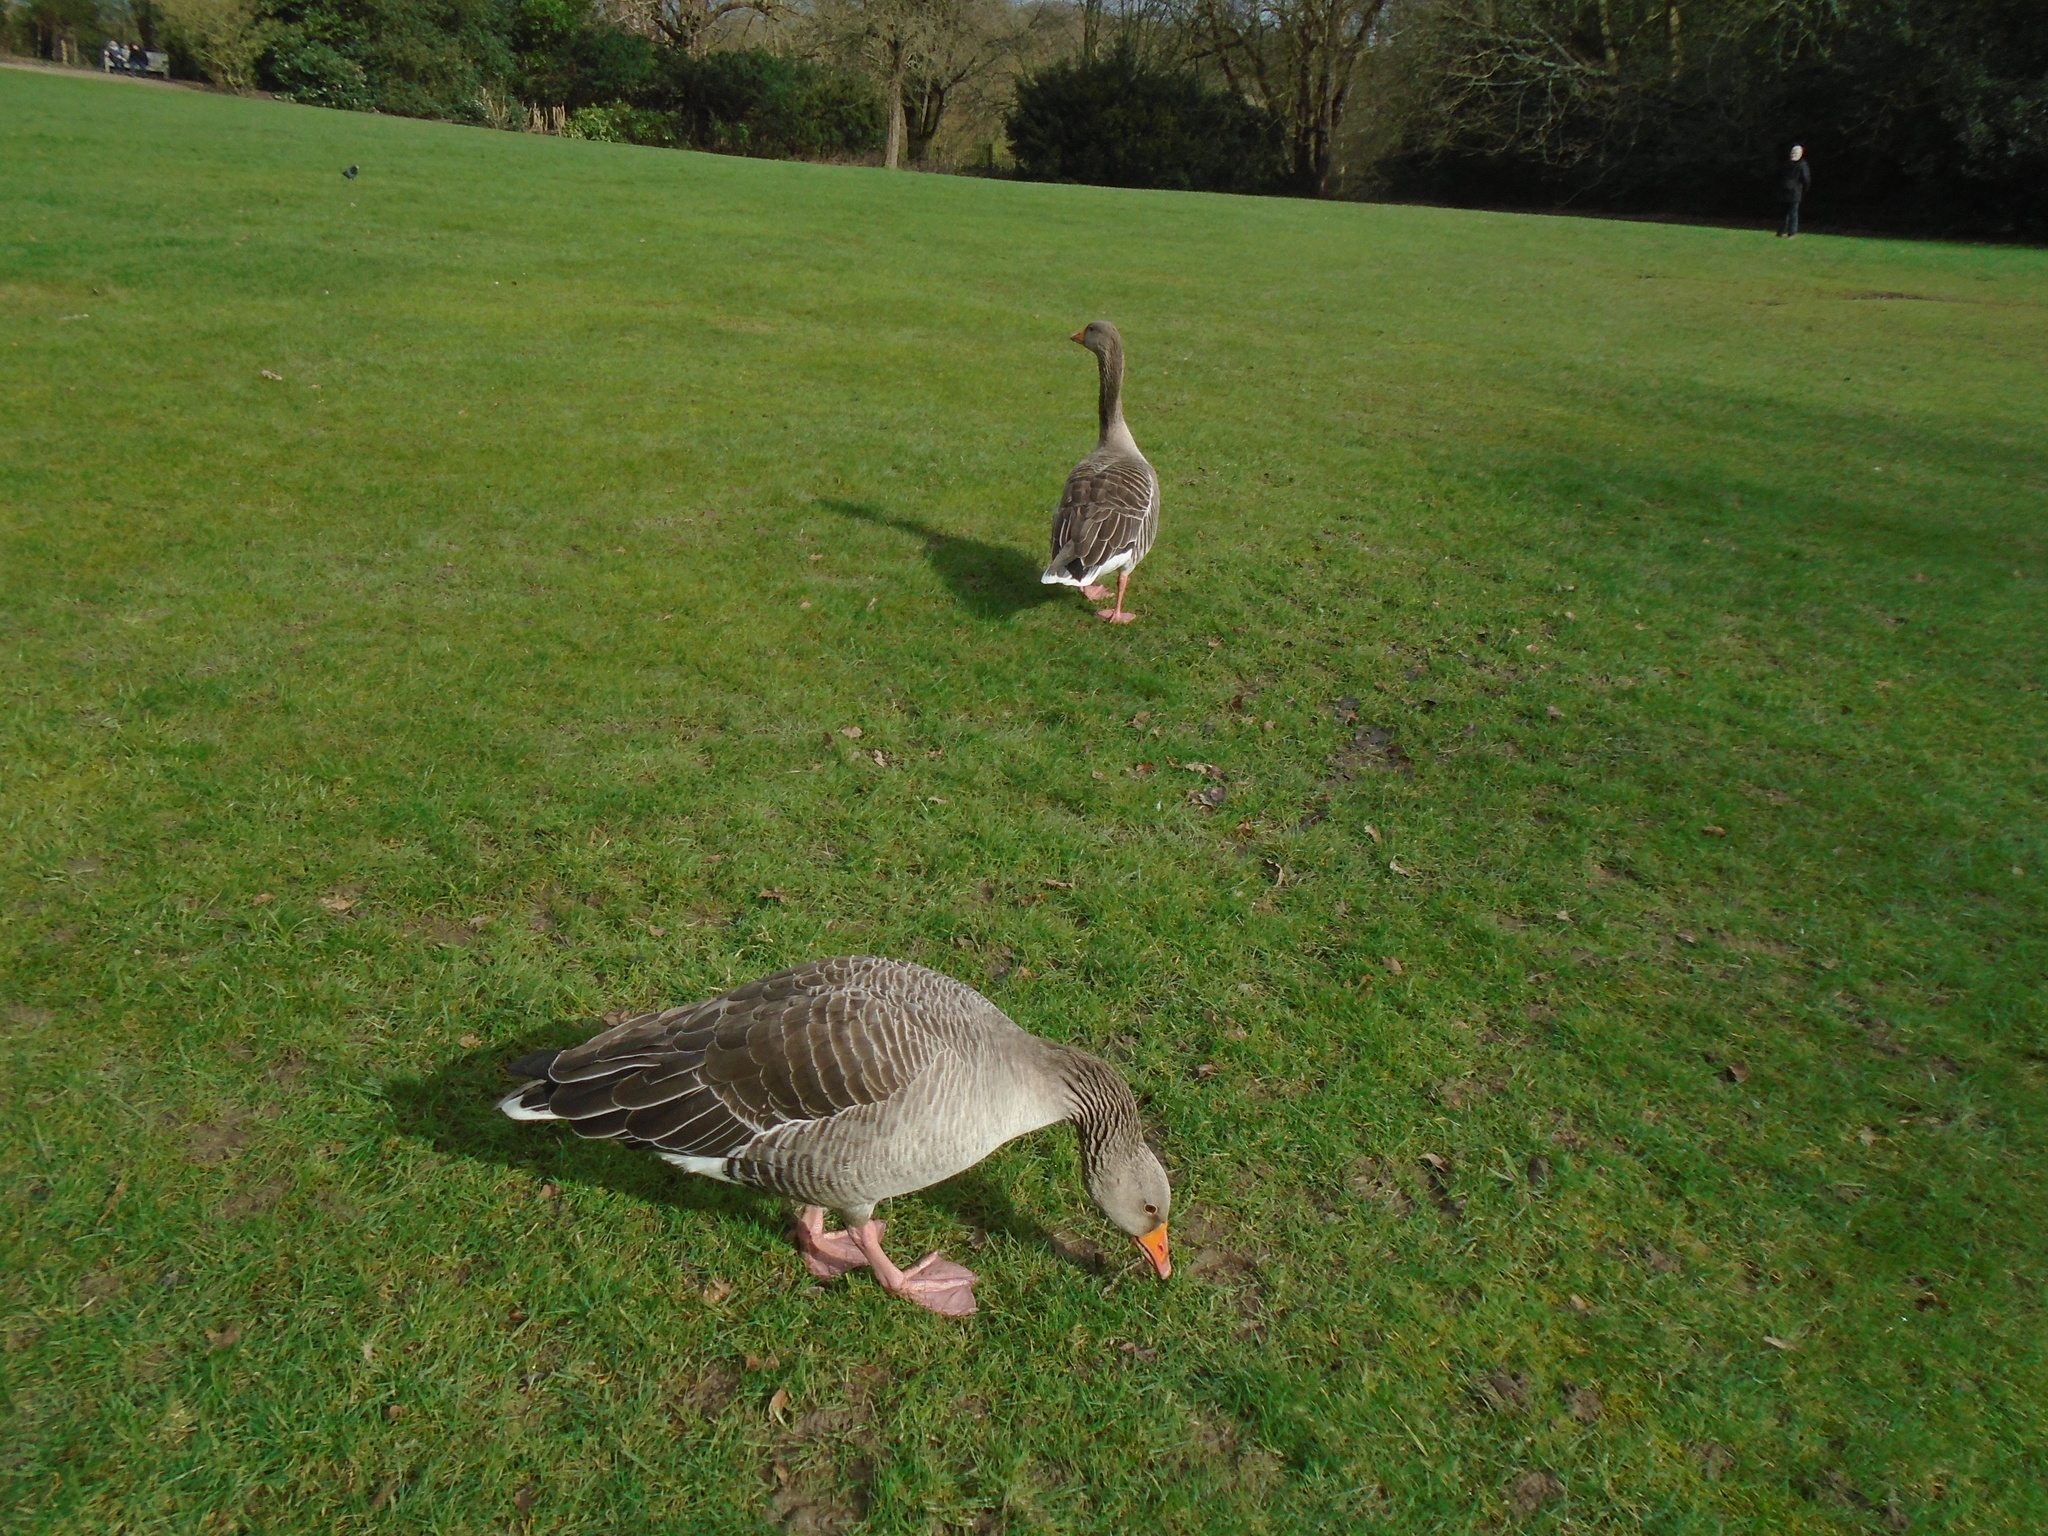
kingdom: Animalia
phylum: Chordata
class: Aves
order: Anseriformes
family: Anatidae
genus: Anser
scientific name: Anser anser
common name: Greylag goose
